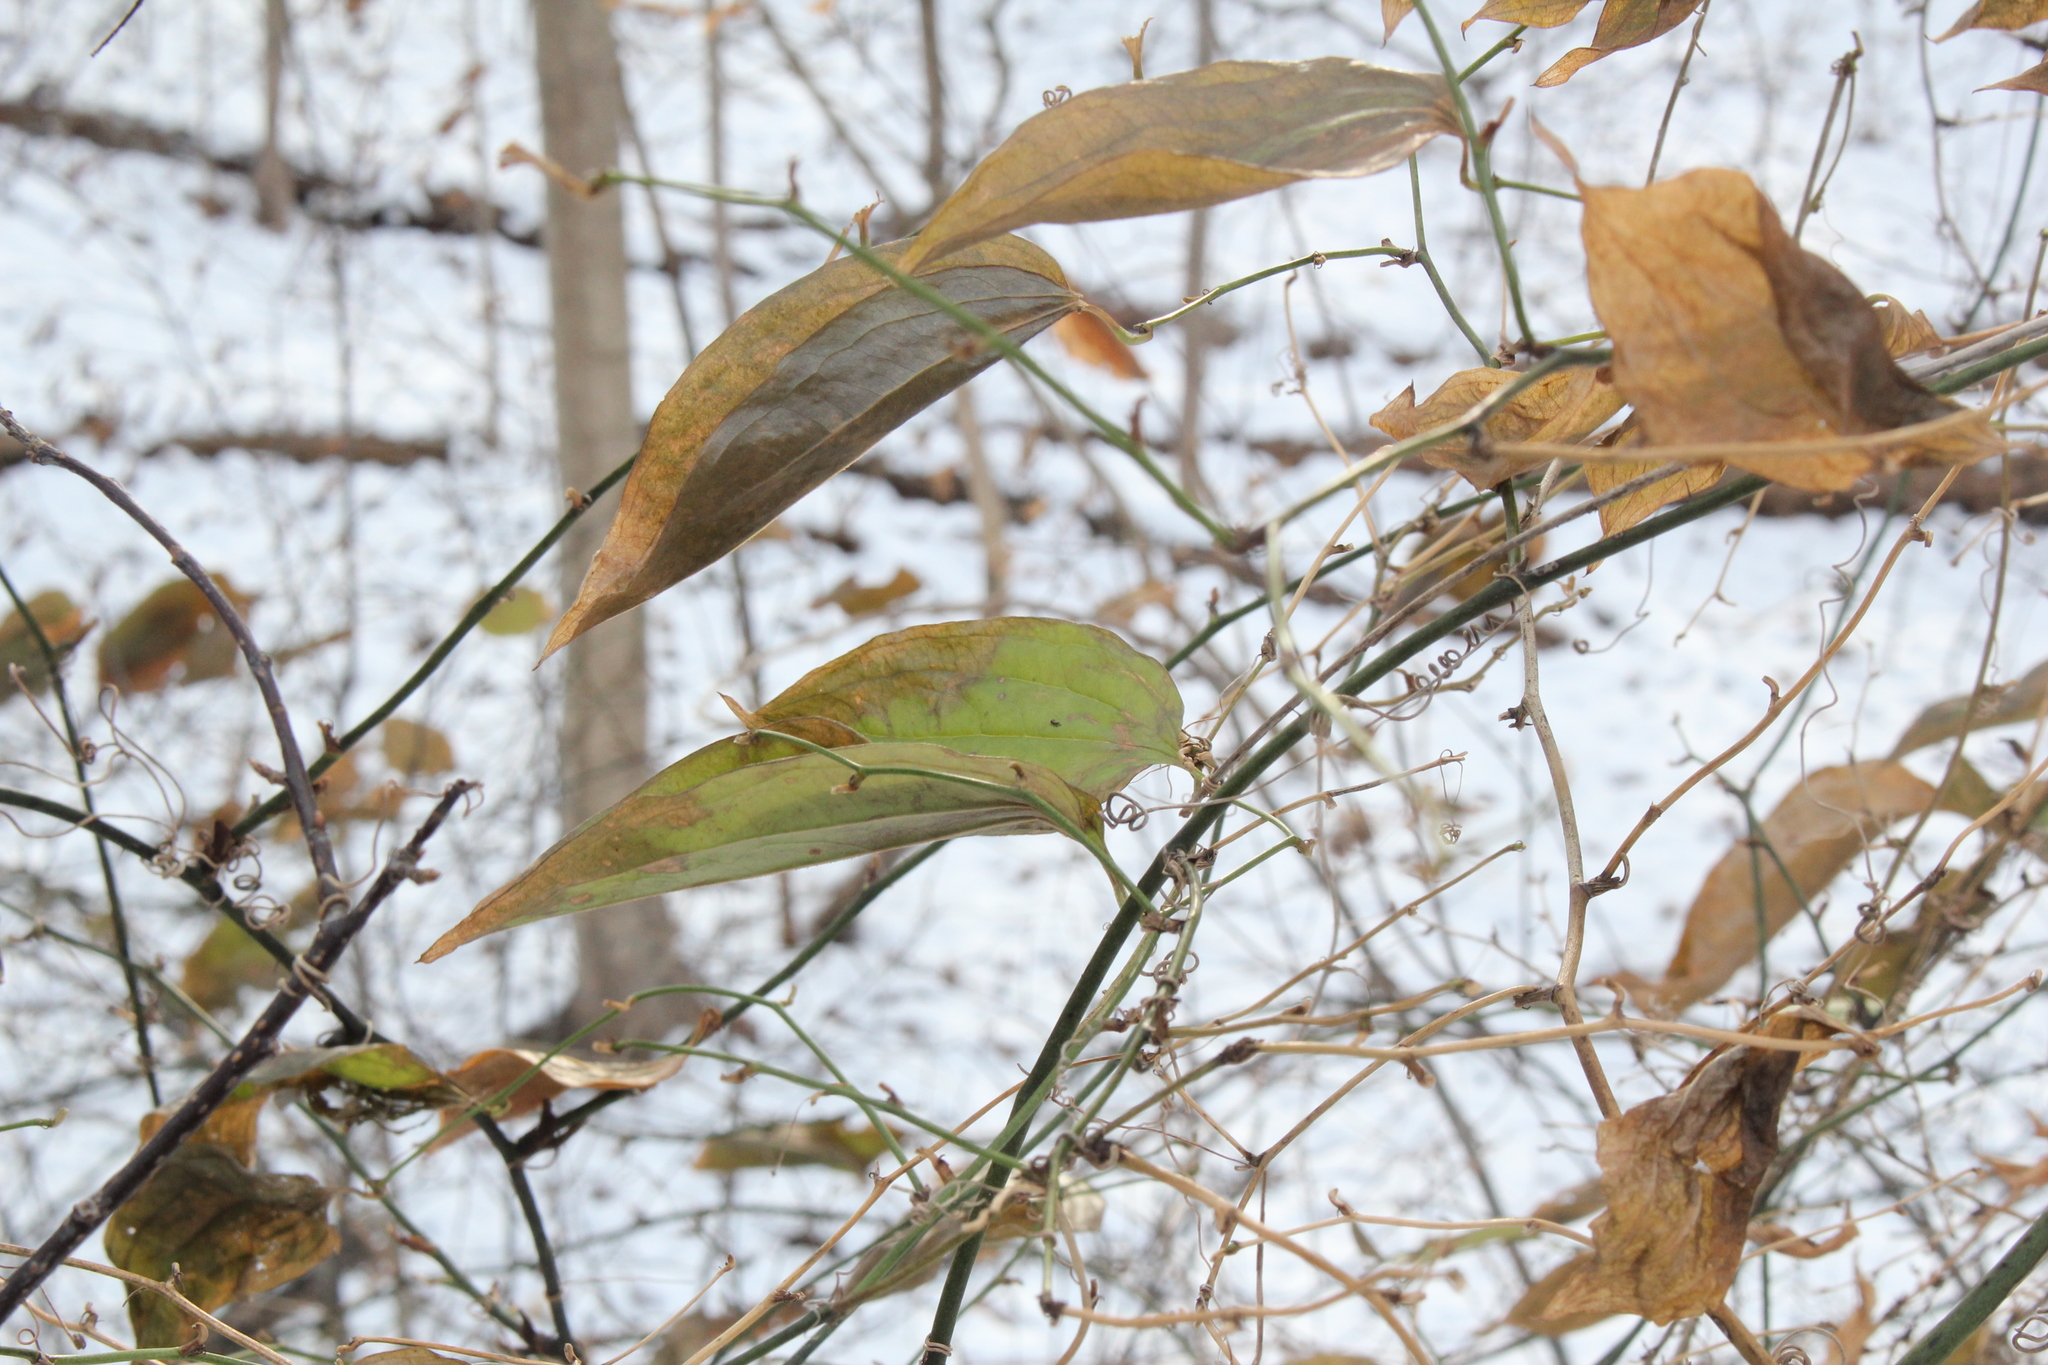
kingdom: Plantae
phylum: Tracheophyta
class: Liliopsida
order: Liliales
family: Smilacaceae
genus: Smilax
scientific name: Smilax tamnoides
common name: Hellfetter
